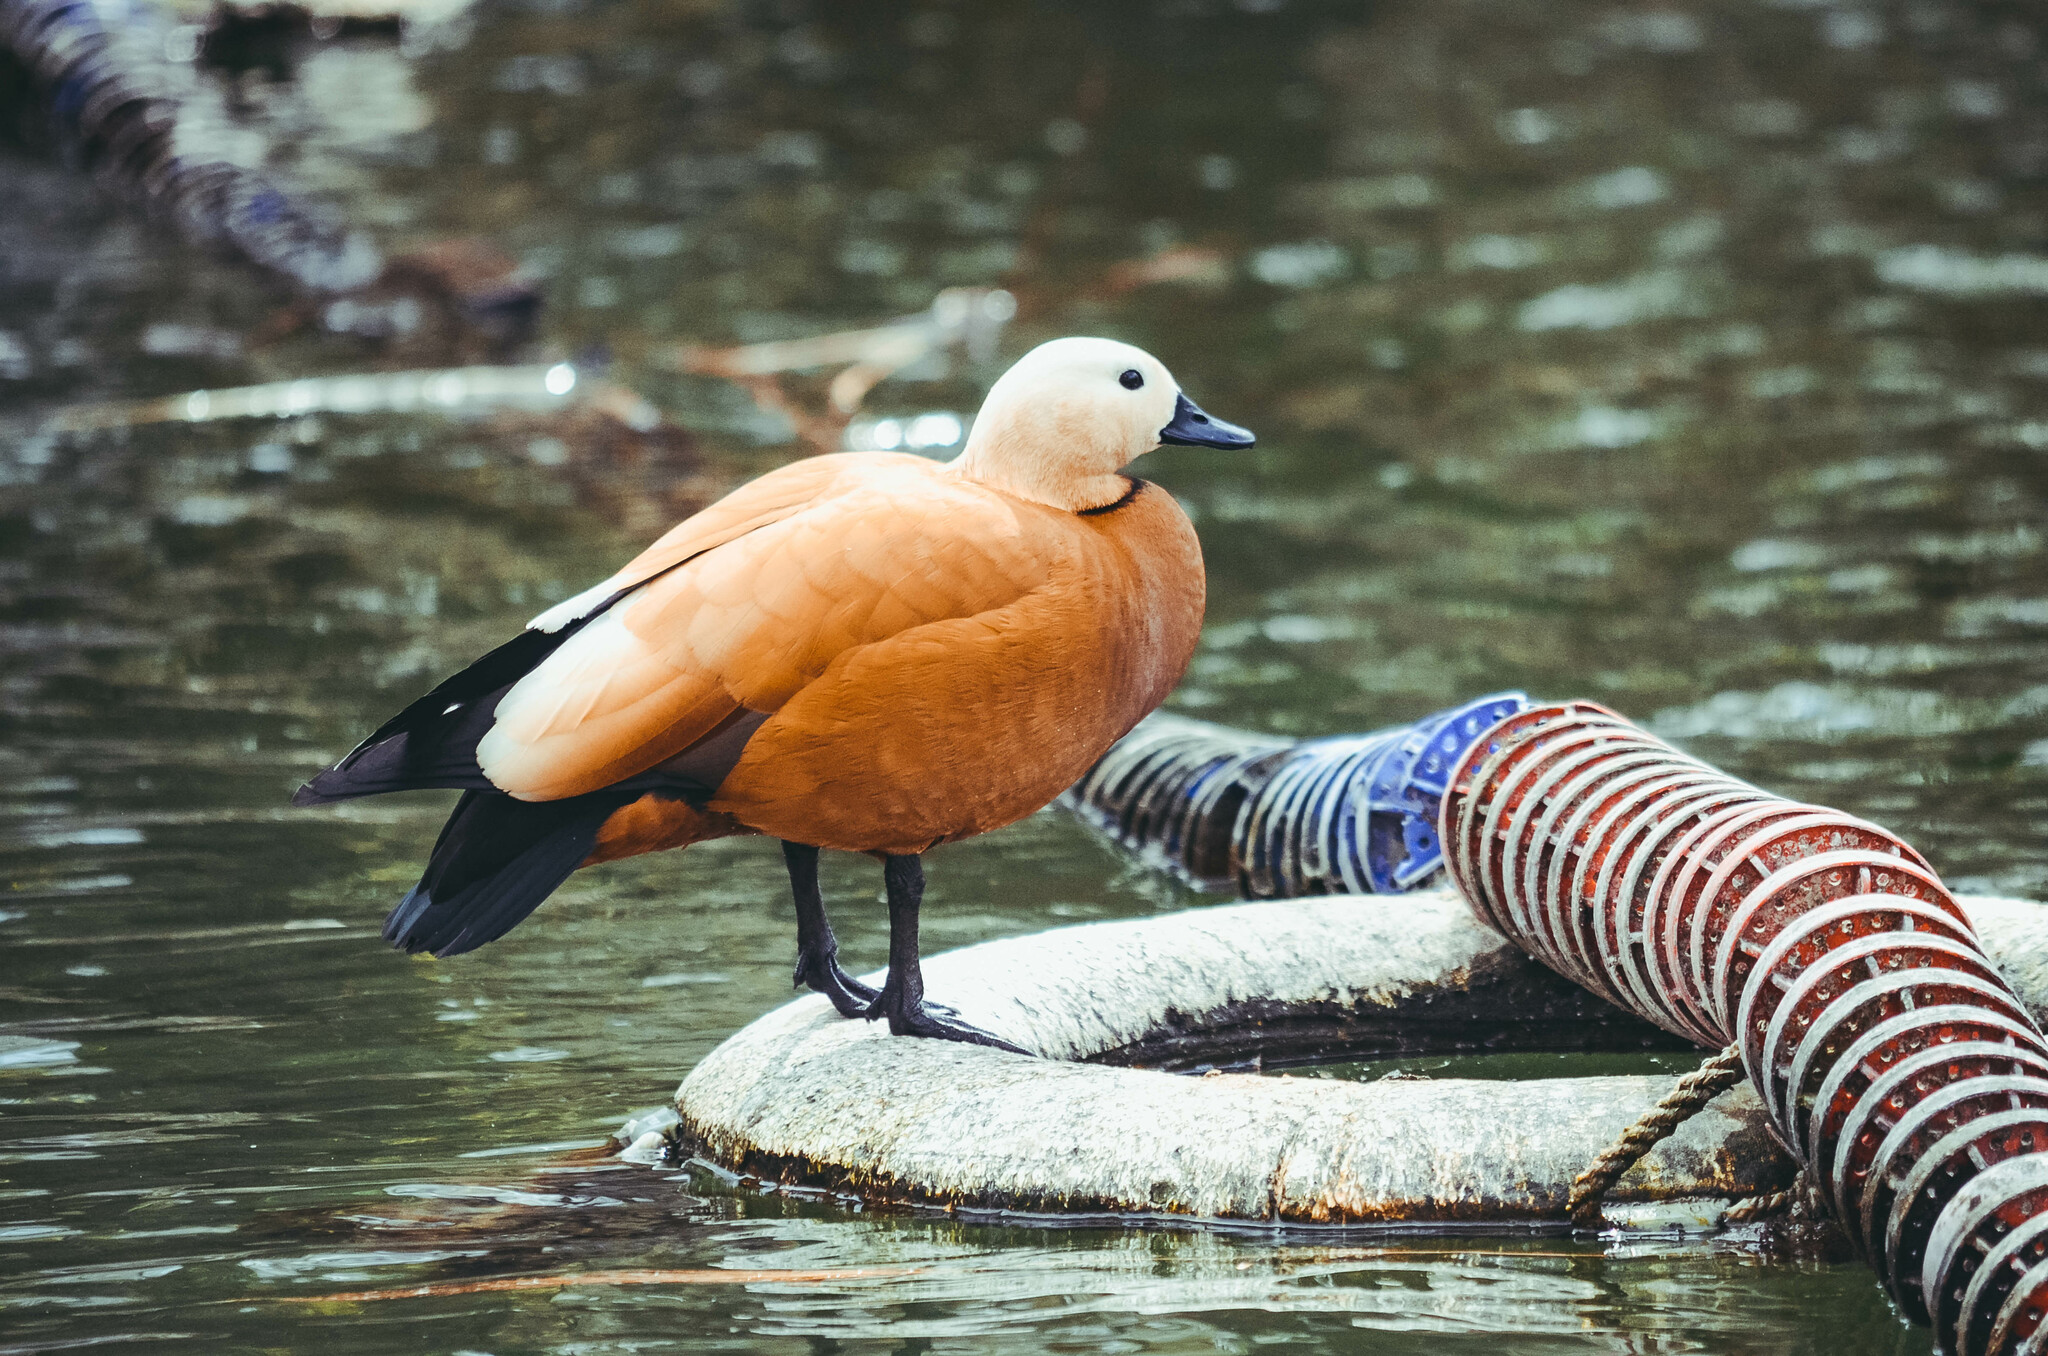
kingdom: Animalia
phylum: Chordata
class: Aves
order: Anseriformes
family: Anatidae
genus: Tadorna
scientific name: Tadorna ferruginea
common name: Ruddy shelduck
